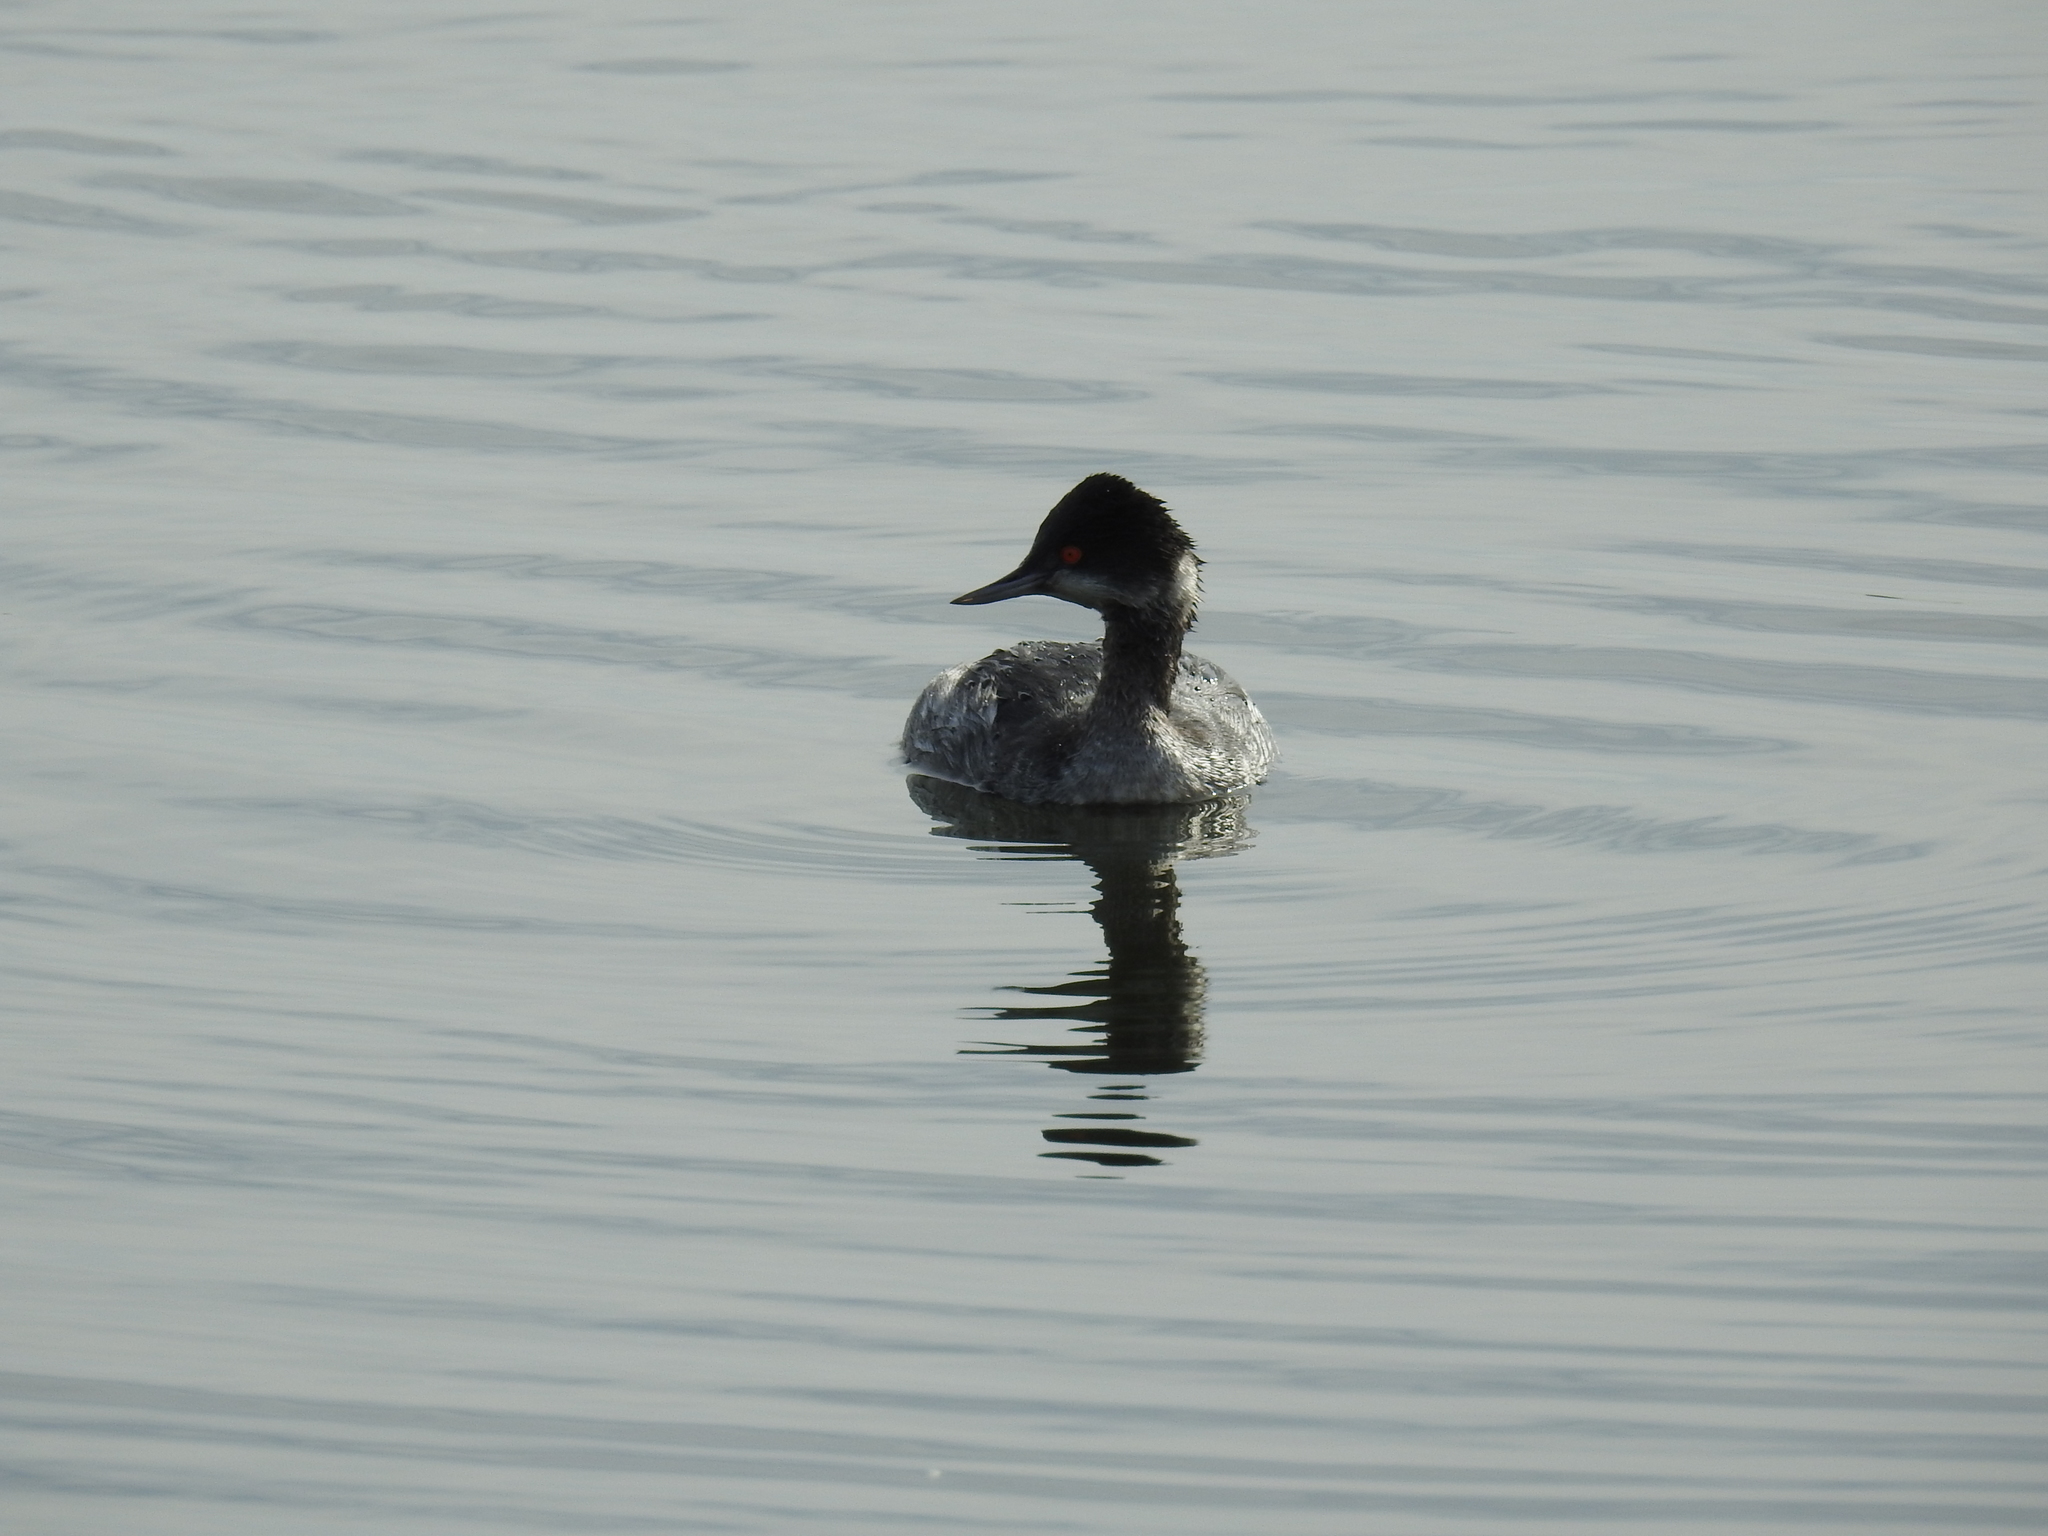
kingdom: Animalia
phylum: Chordata
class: Aves
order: Podicipediformes
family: Podicipedidae
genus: Podiceps
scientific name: Podiceps nigricollis
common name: Black-necked grebe
